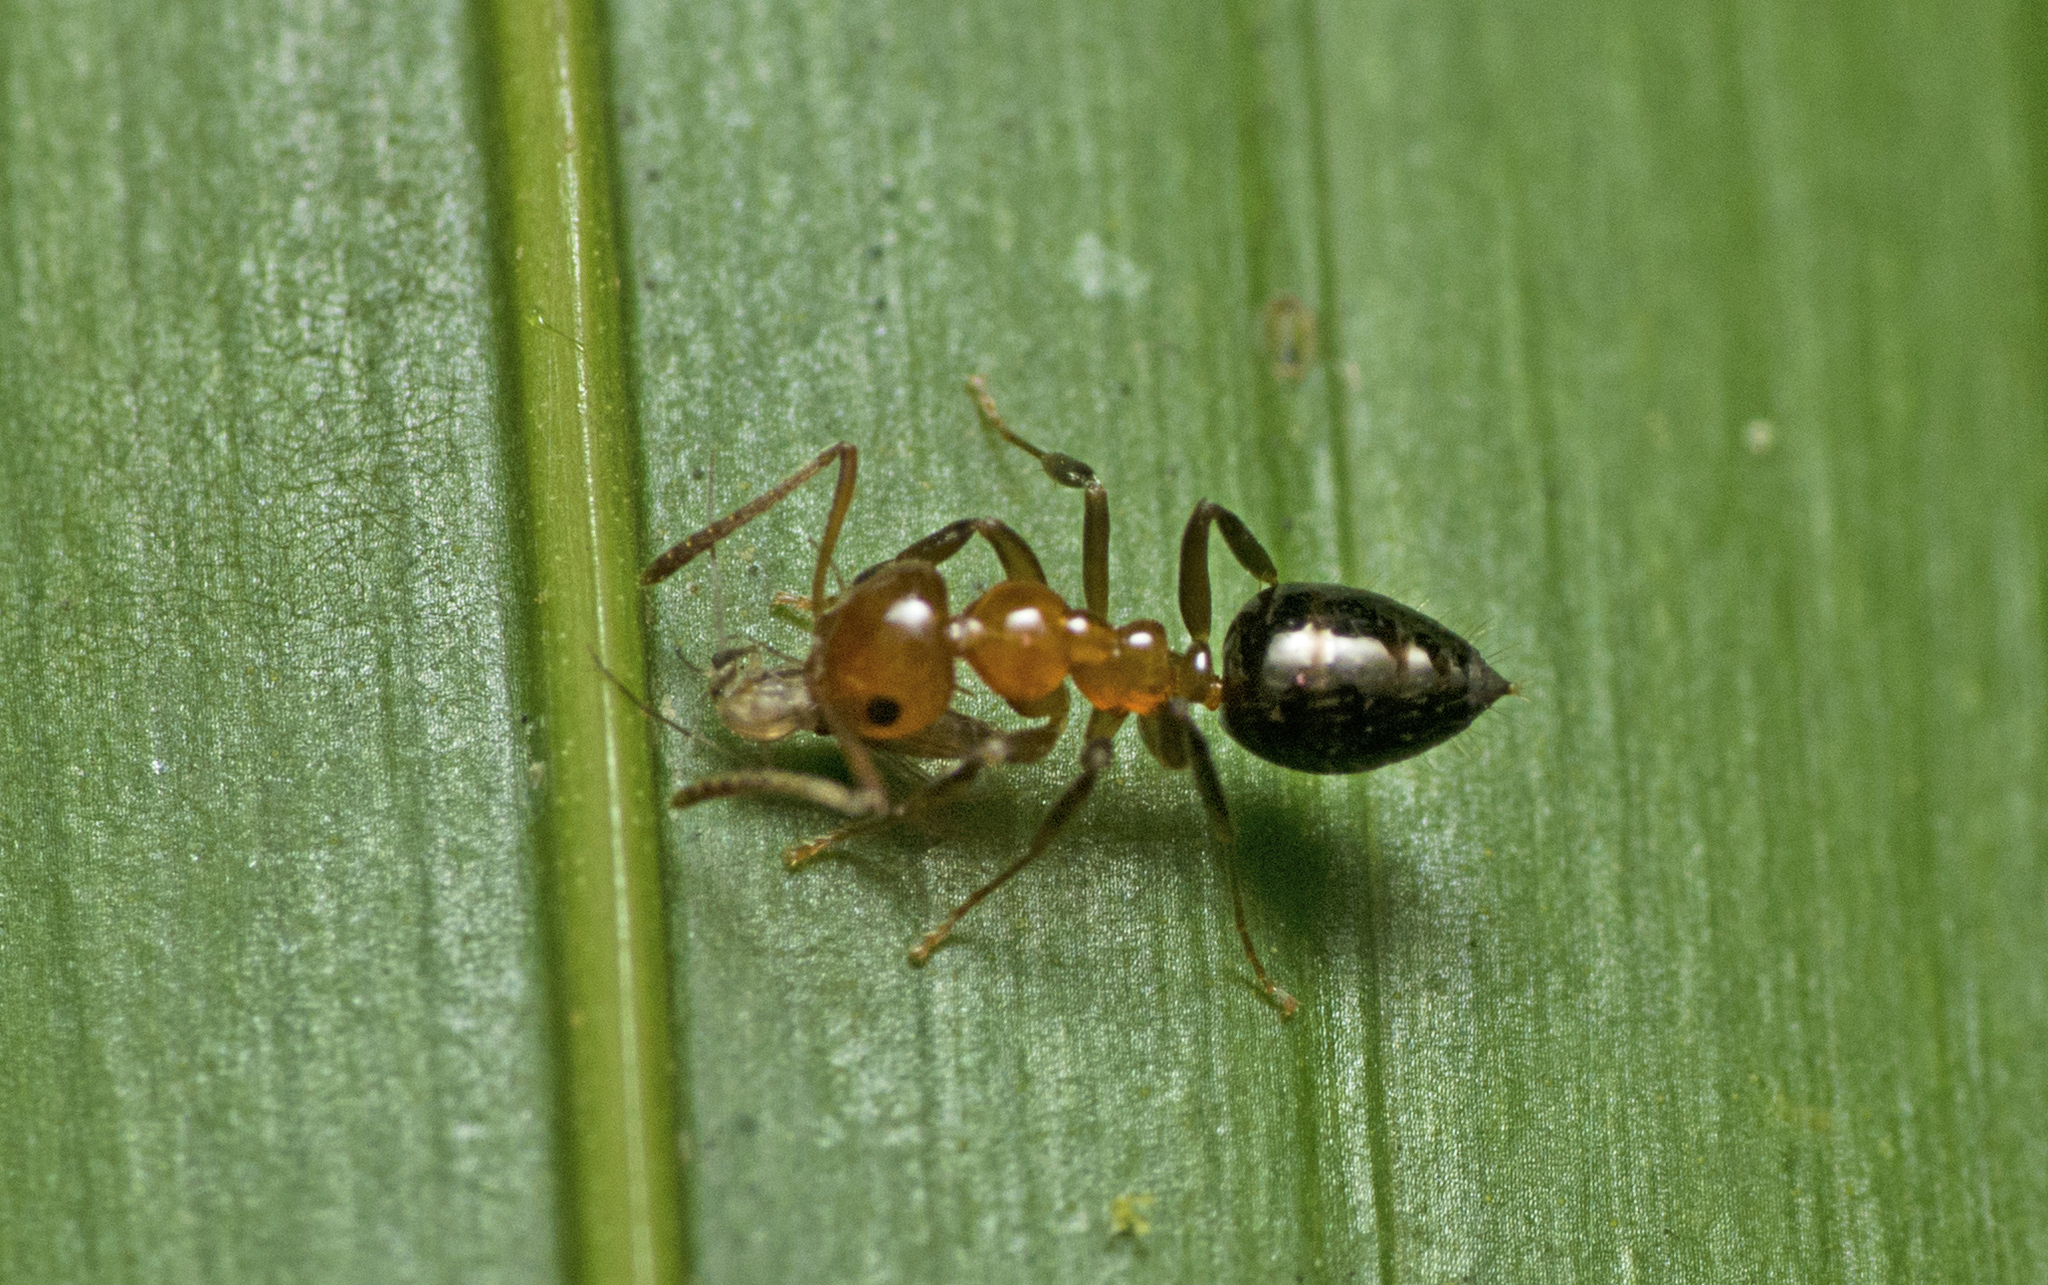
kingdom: Animalia
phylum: Arthropoda
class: Insecta
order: Hymenoptera
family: Formicidae
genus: Prolasius
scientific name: Prolasius convexus
